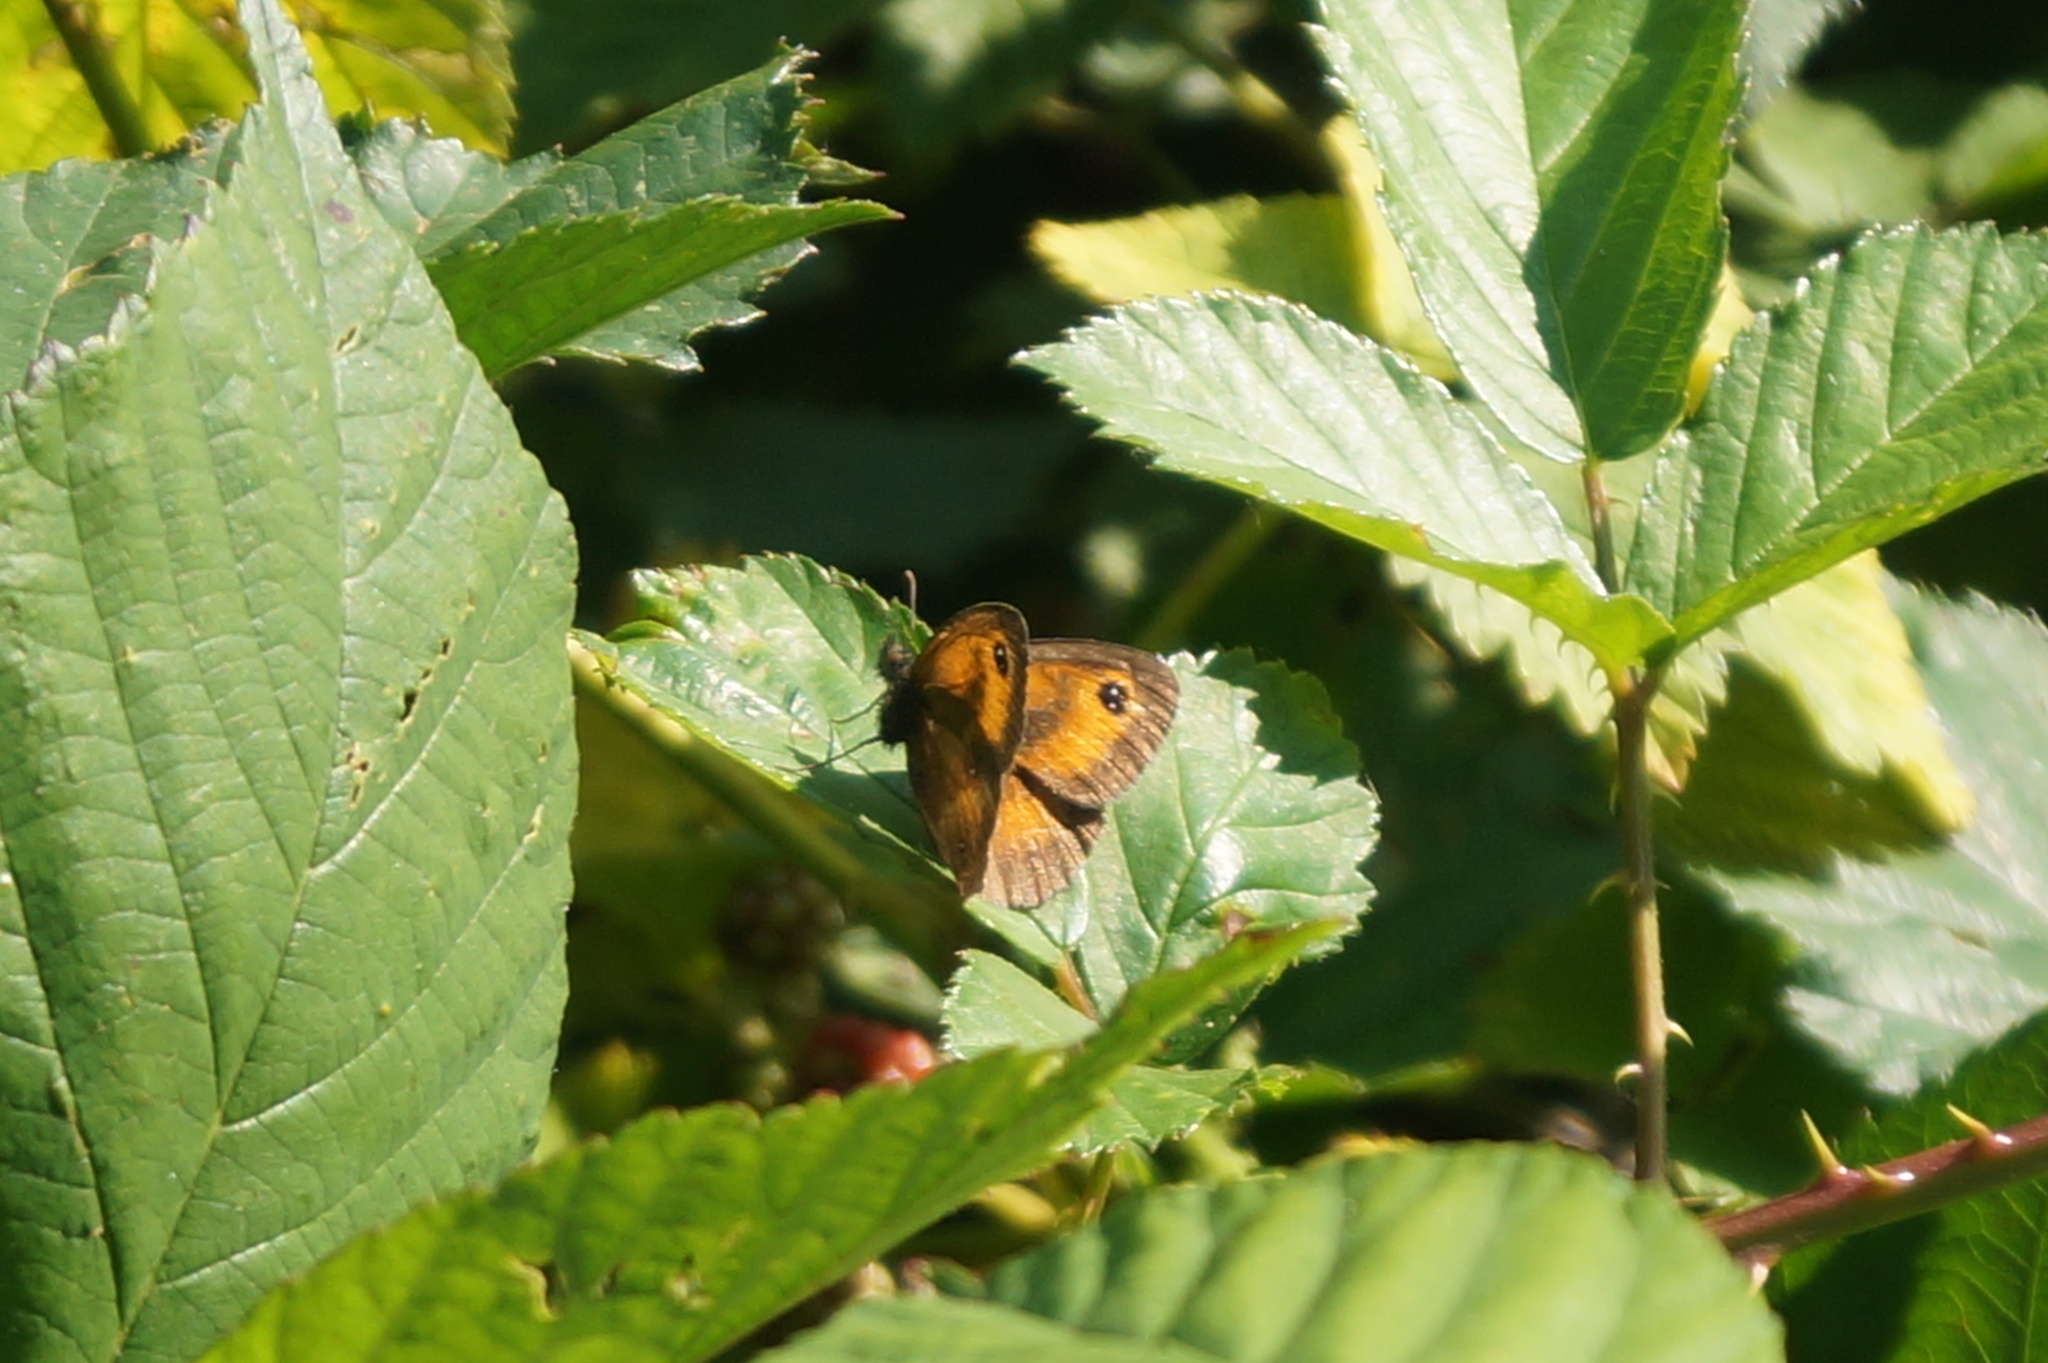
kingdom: Animalia
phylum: Arthropoda
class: Insecta
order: Lepidoptera
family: Nymphalidae
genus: Pyronia
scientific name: Pyronia tithonus
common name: Gatekeeper
